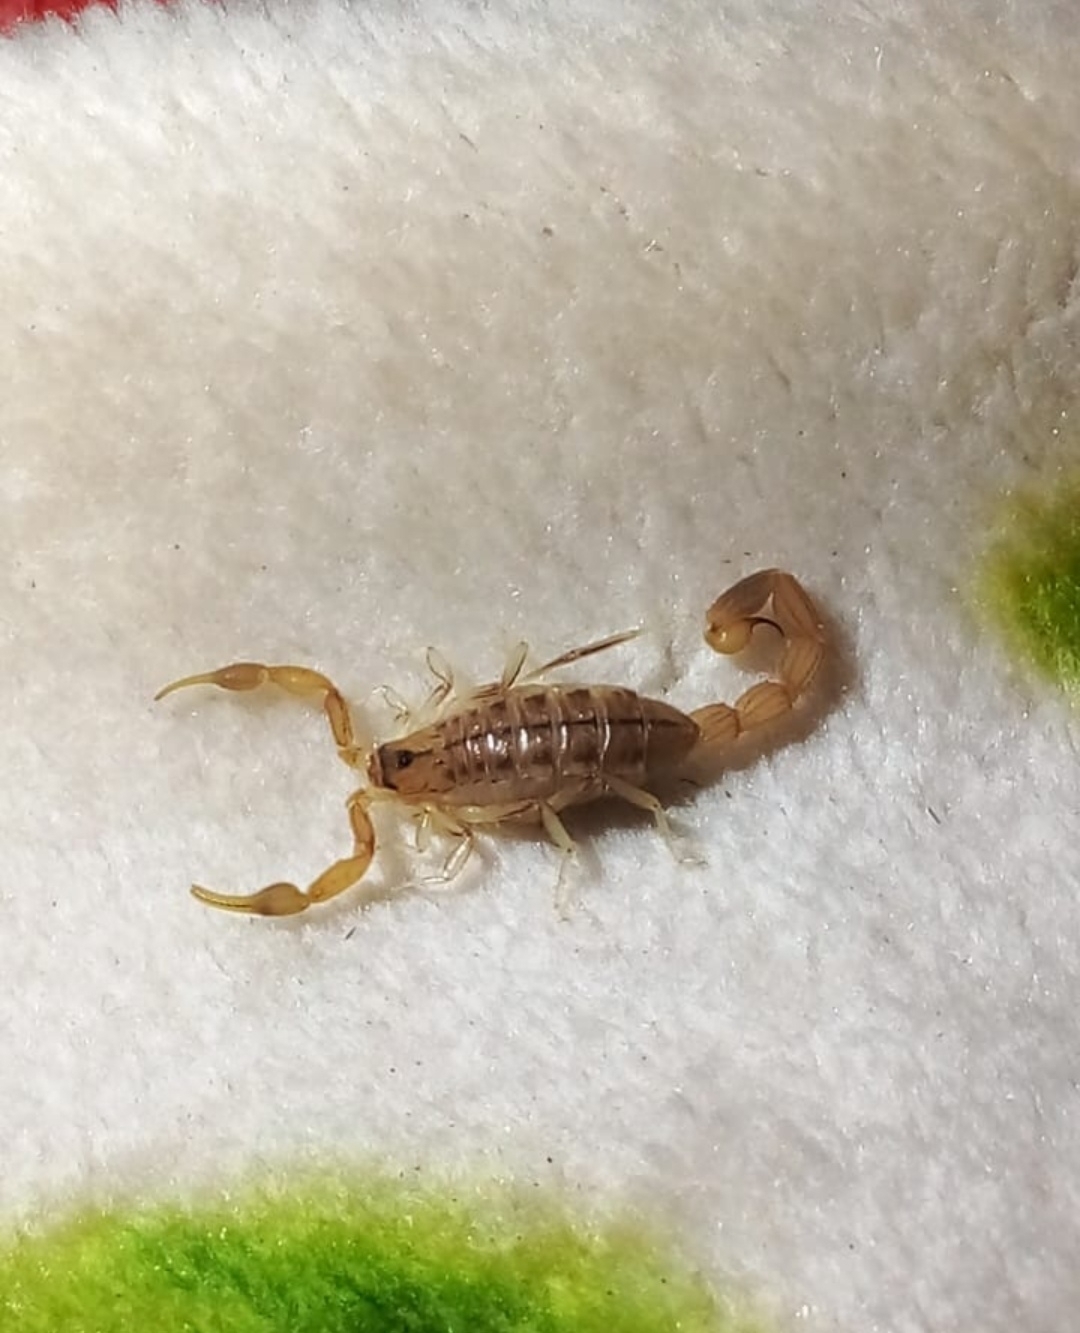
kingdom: Animalia
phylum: Arthropoda
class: Arachnida
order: Scorpiones
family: Buthidae
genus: Uroplectes
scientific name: Uroplectes carinatus
